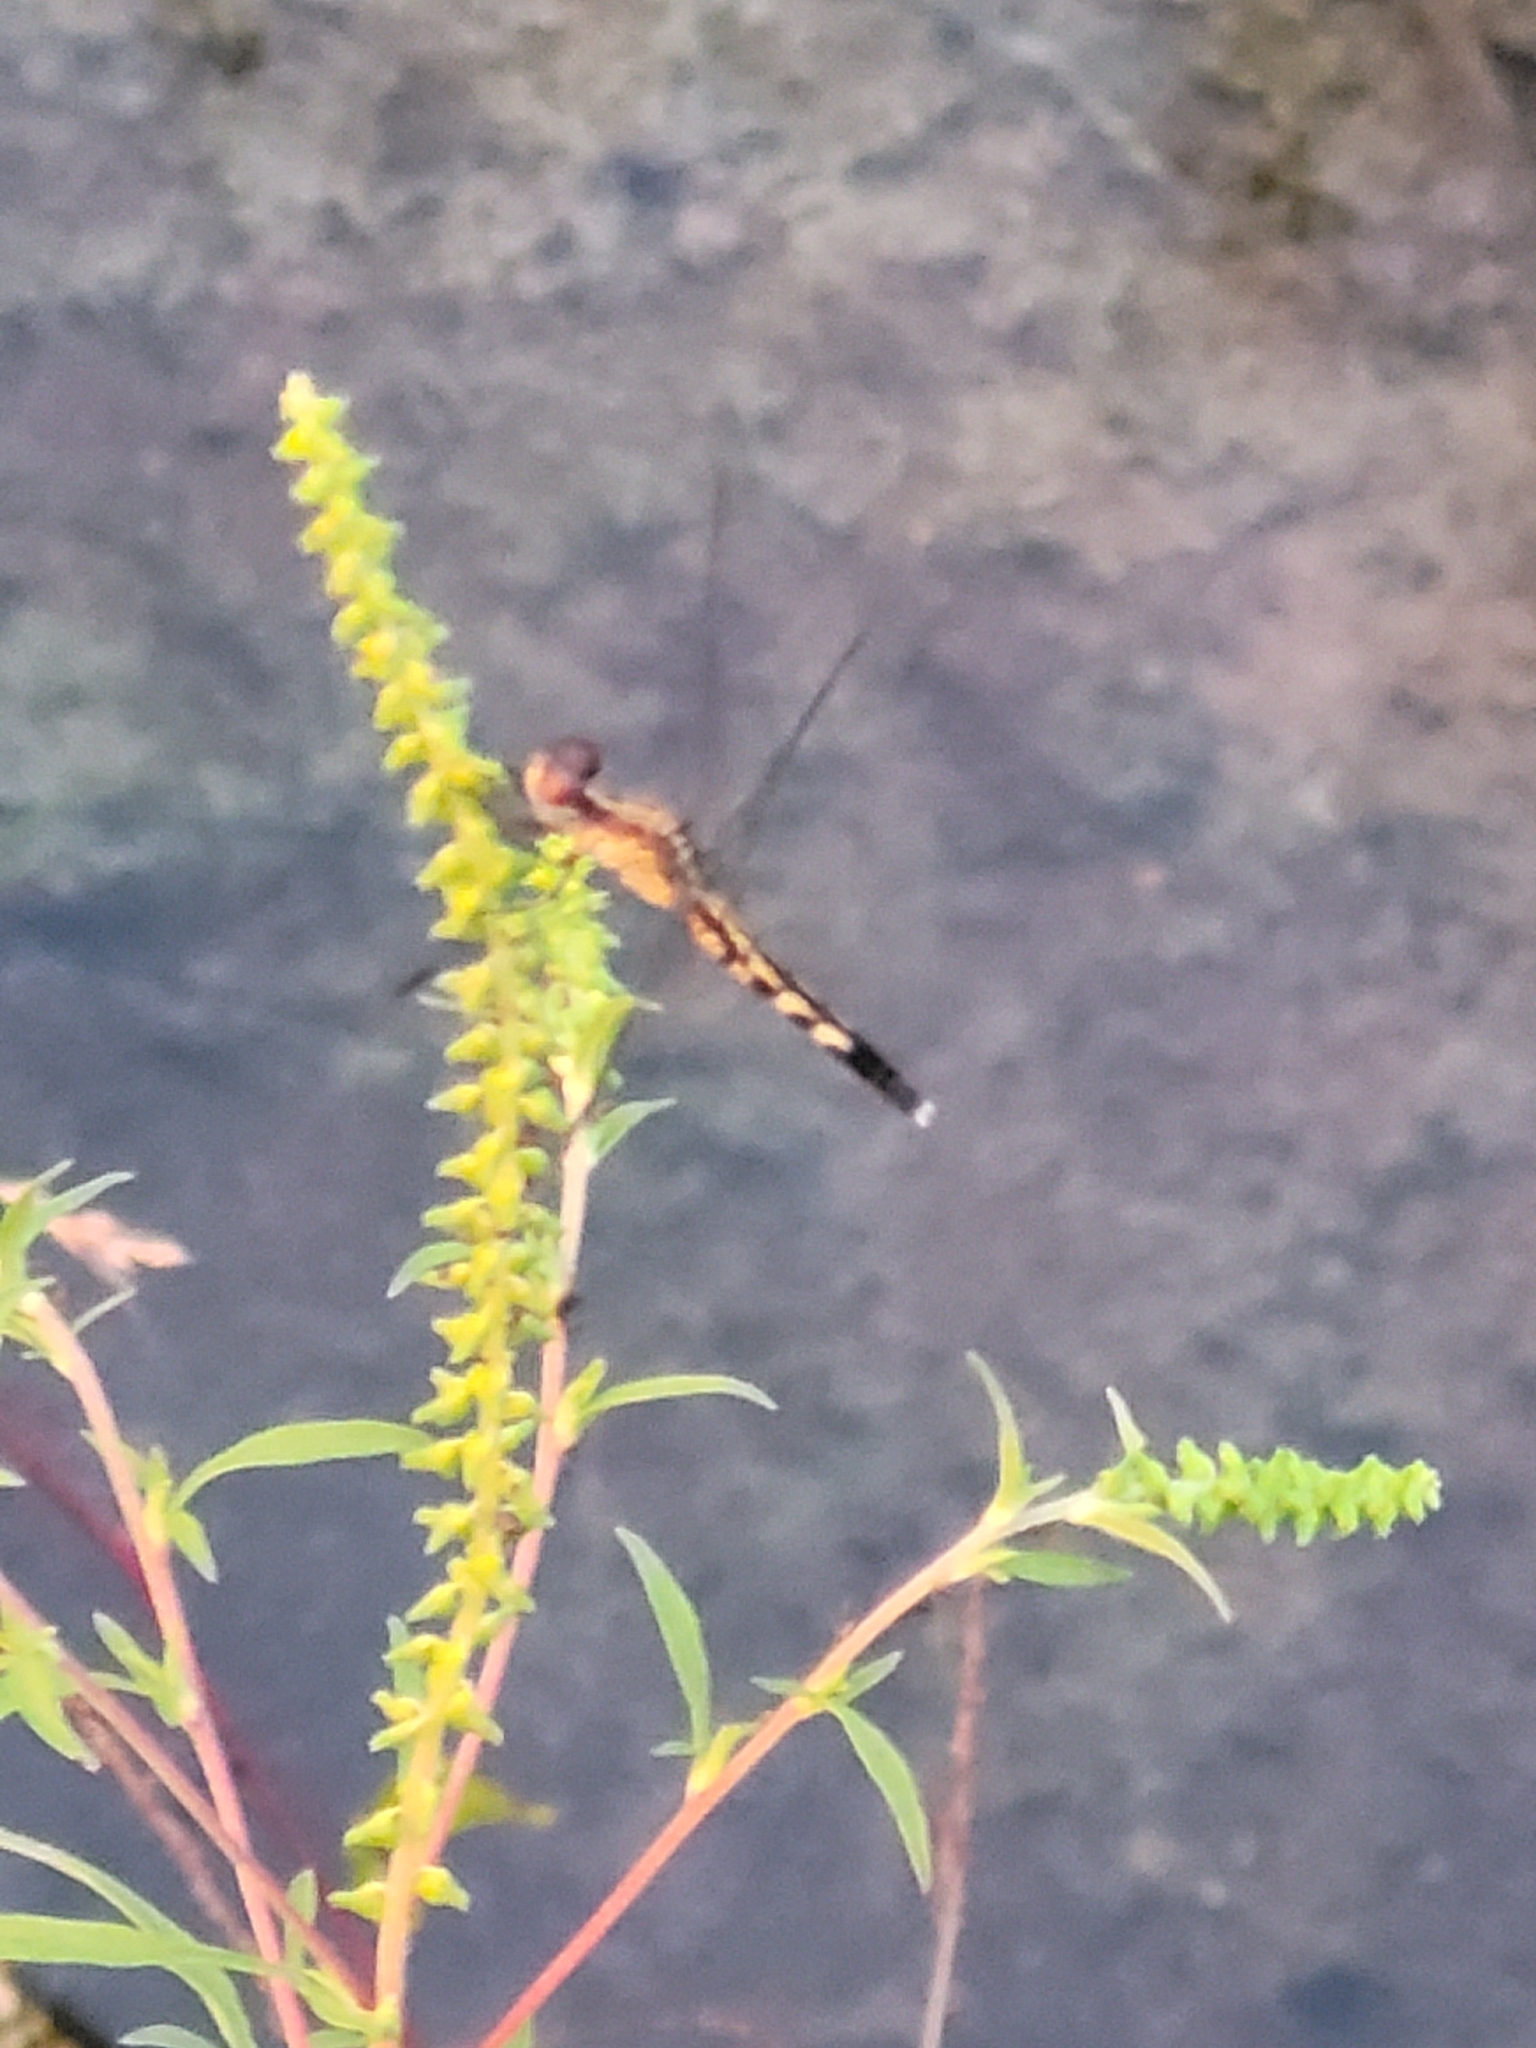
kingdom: Animalia
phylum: Arthropoda
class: Insecta
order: Odonata
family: Libellulidae
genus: Erythrodiplax
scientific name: Erythrodiplax minuscula
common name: Little blue dragonlet
